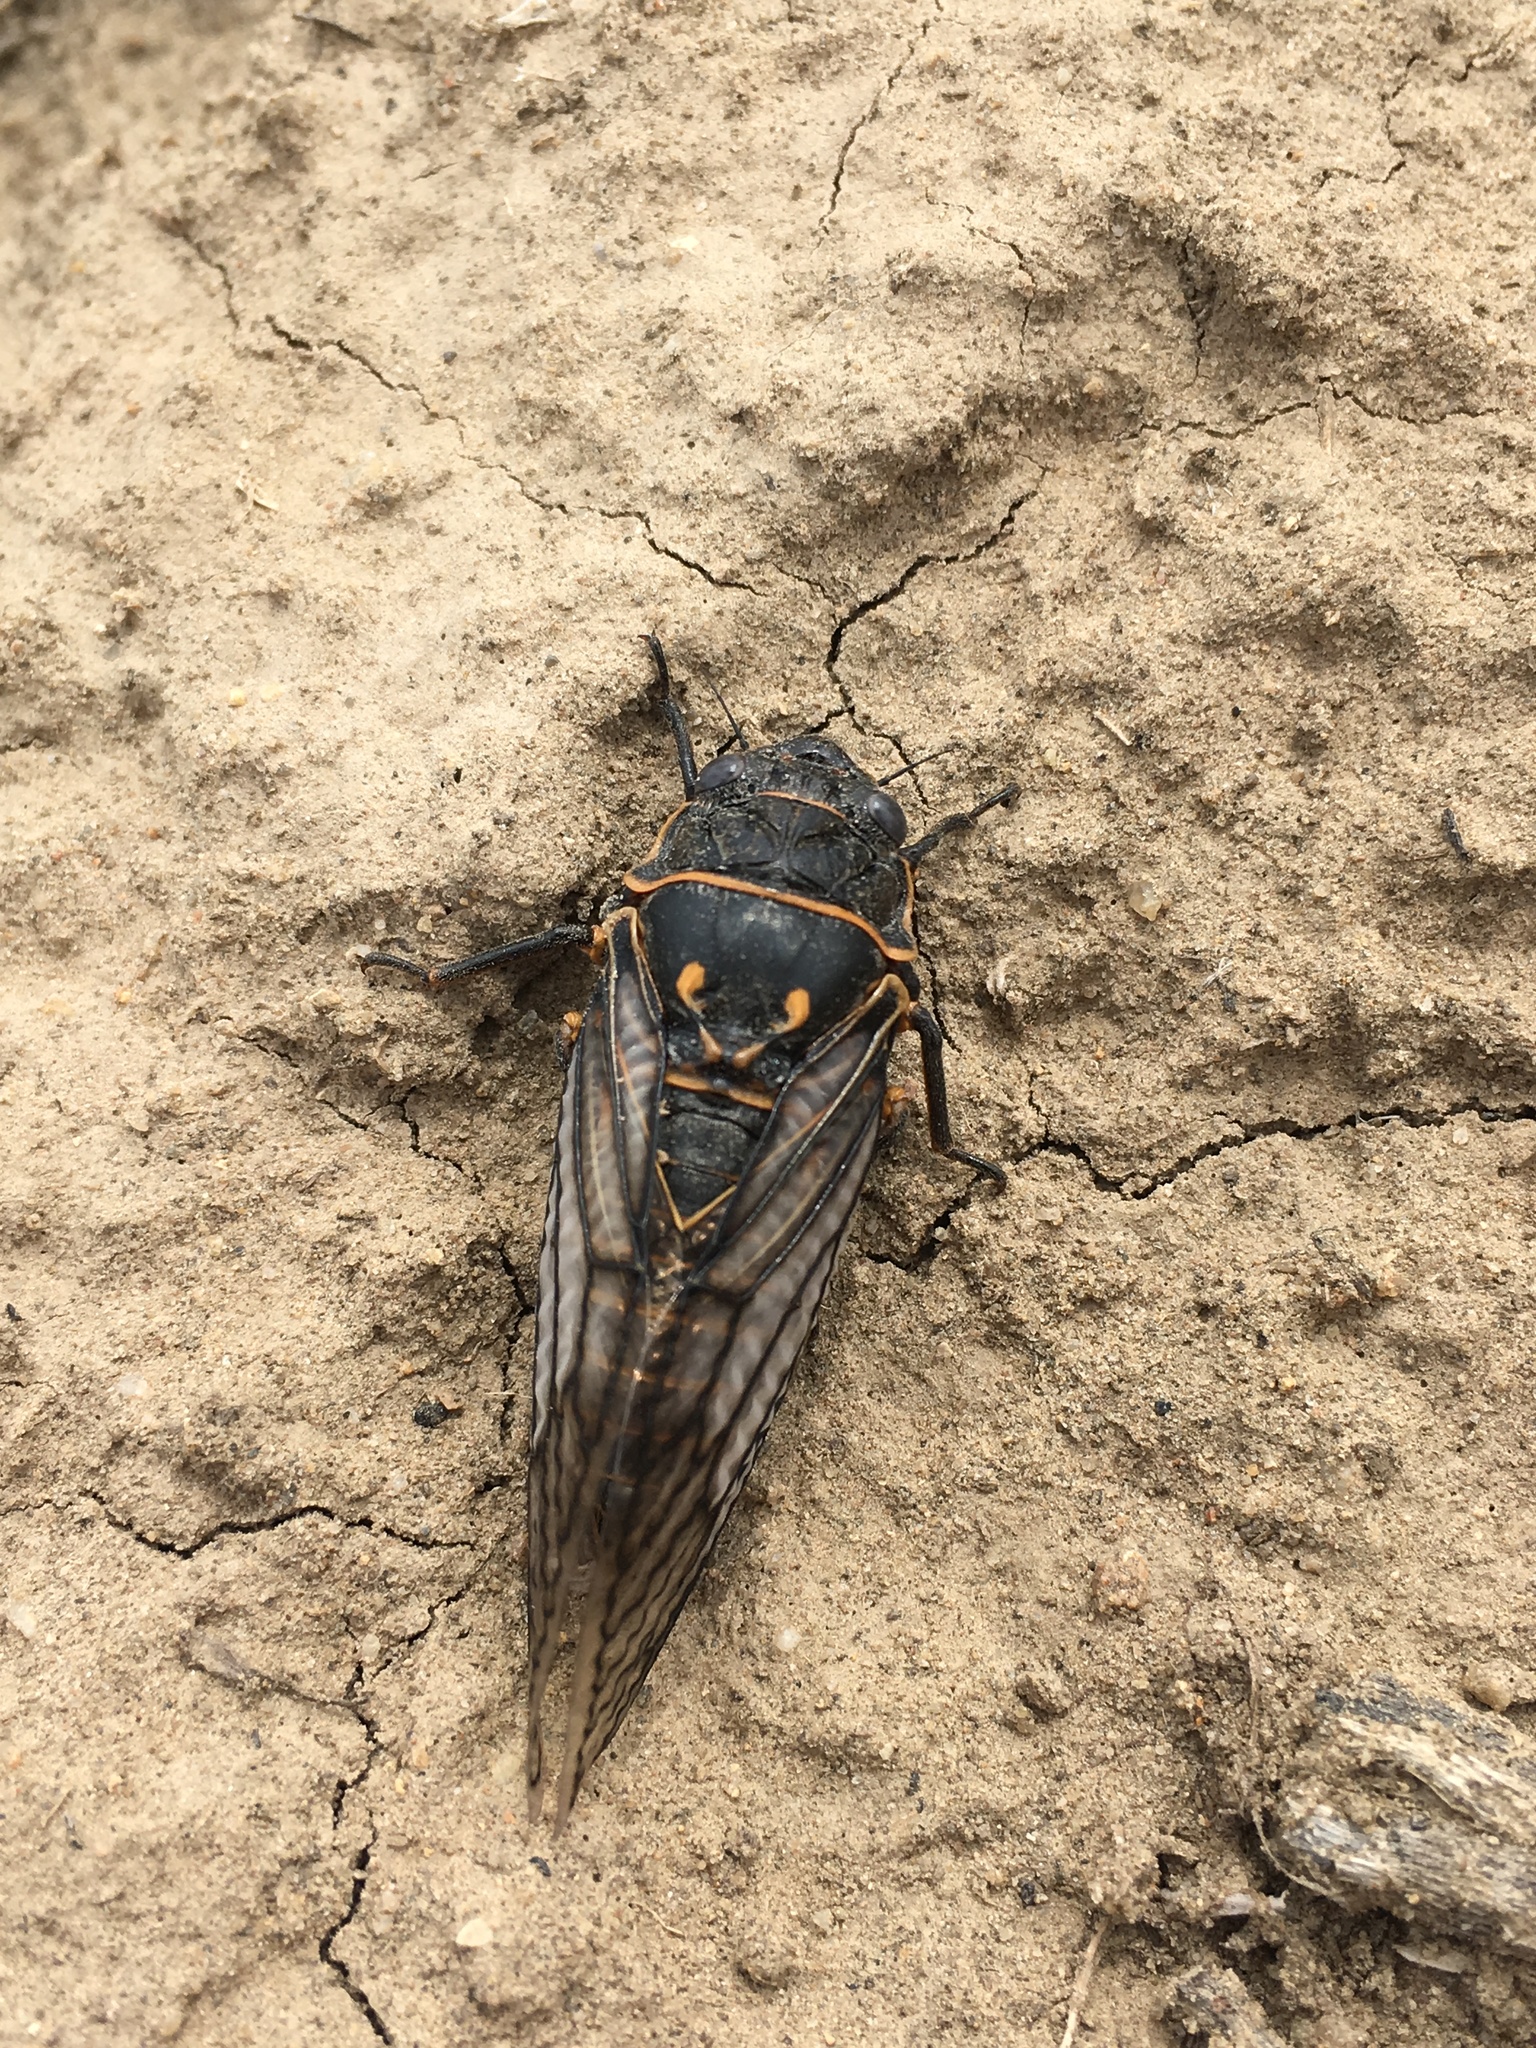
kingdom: Animalia
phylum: Arthropoda
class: Insecta
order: Hemiptera
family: Cicadidae
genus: Okanagana
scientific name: Okanagana fumipennis
